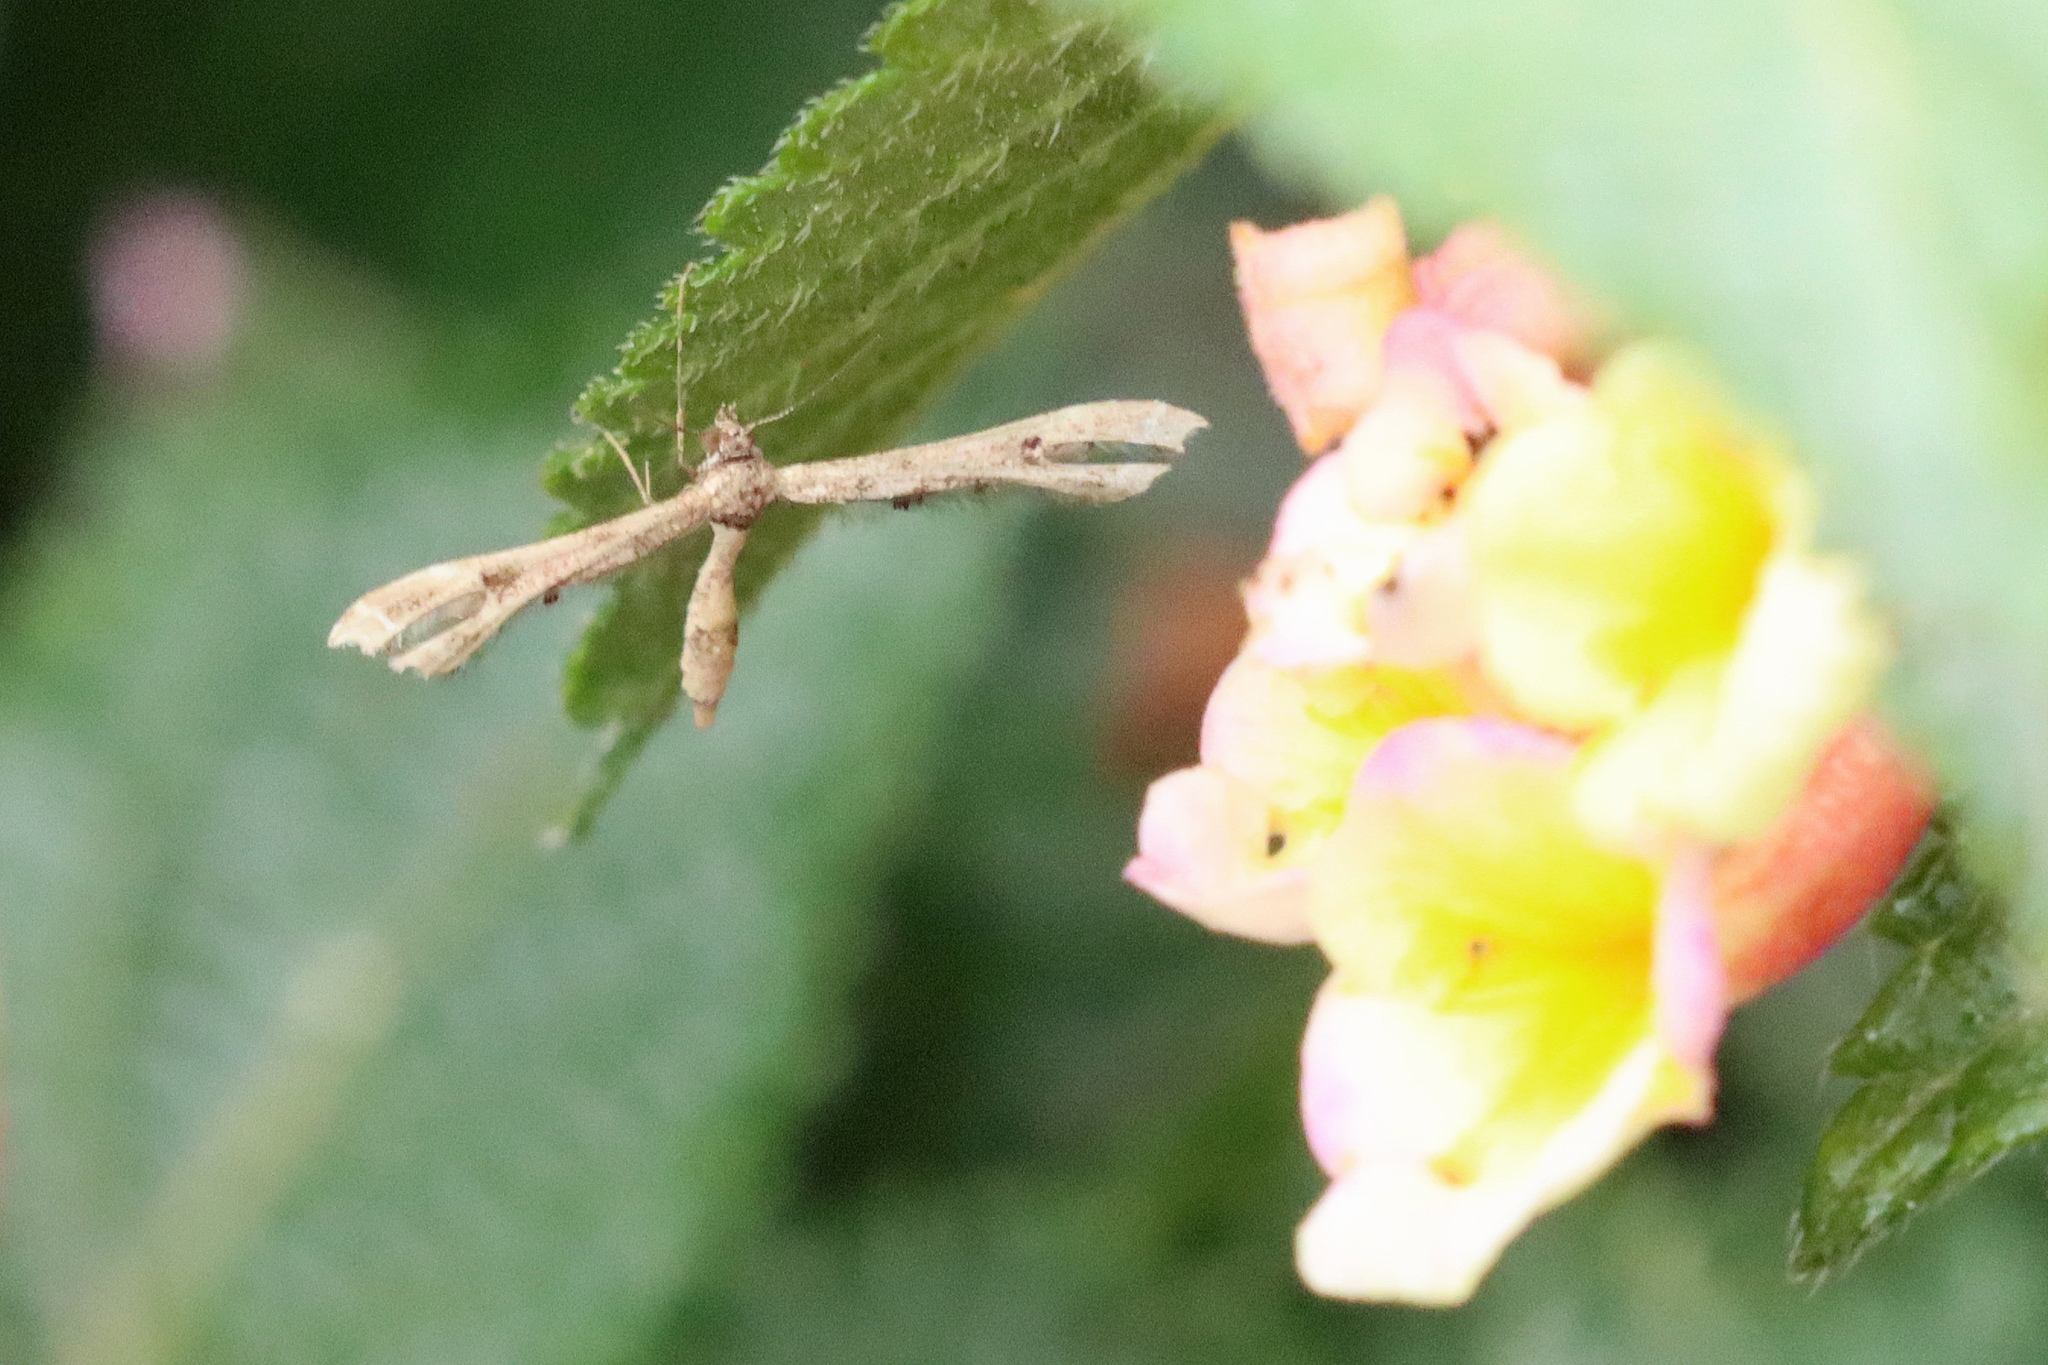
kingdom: Animalia
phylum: Arthropoda
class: Insecta
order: Lepidoptera
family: Pterophoridae
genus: Lantanophaga
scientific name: Lantanophaga pusillidactylus
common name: Moth
